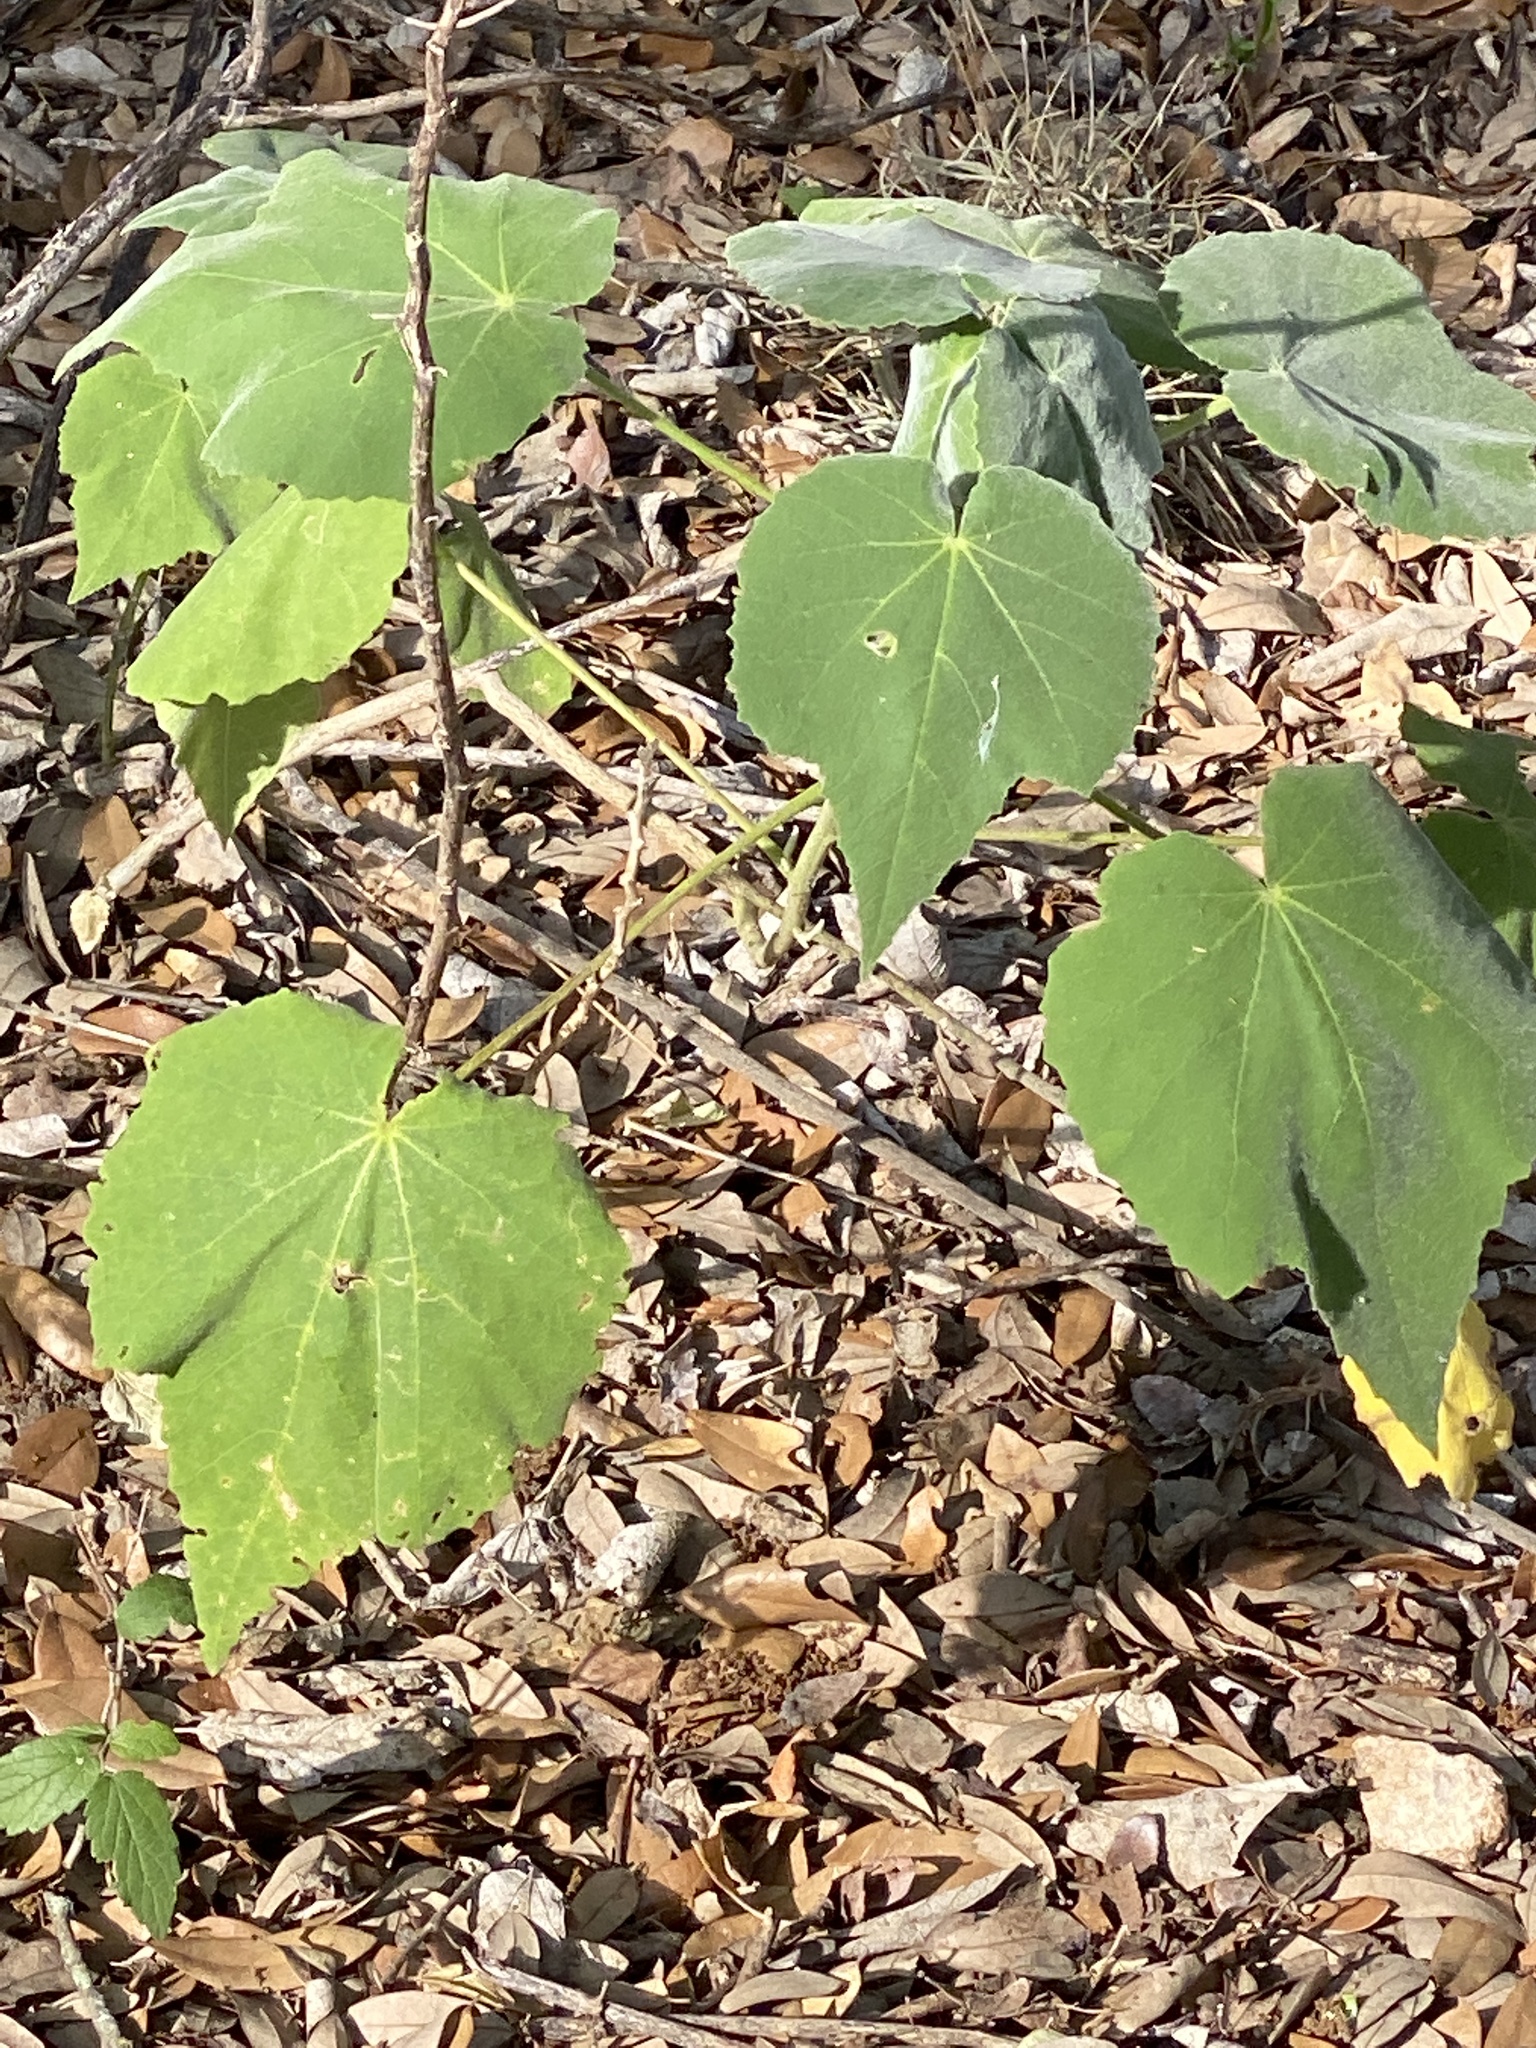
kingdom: Plantae
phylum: Tracheophyta
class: Magnoliopsida
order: Malvales
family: Malvaceae
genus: Allowissadula
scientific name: Allowissadula holosericea
